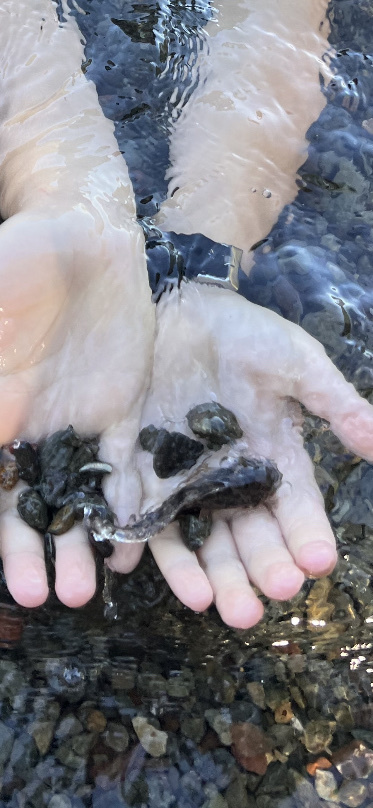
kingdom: Animalia
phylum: Chordata
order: Scorpaeniformes
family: Cottidae
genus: Cottus
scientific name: Cottus asper
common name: Prickly sculpin
